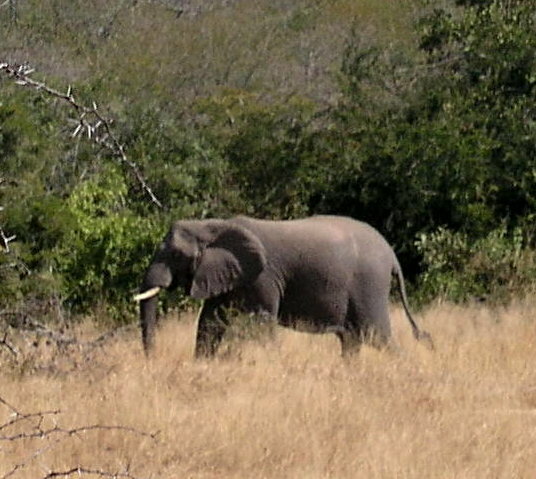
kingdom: Animalia
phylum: Chordata
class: Mammalia
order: Proboscidea
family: Elephantidae
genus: Loxodonta
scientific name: Loxodonta africana
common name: African elephant
